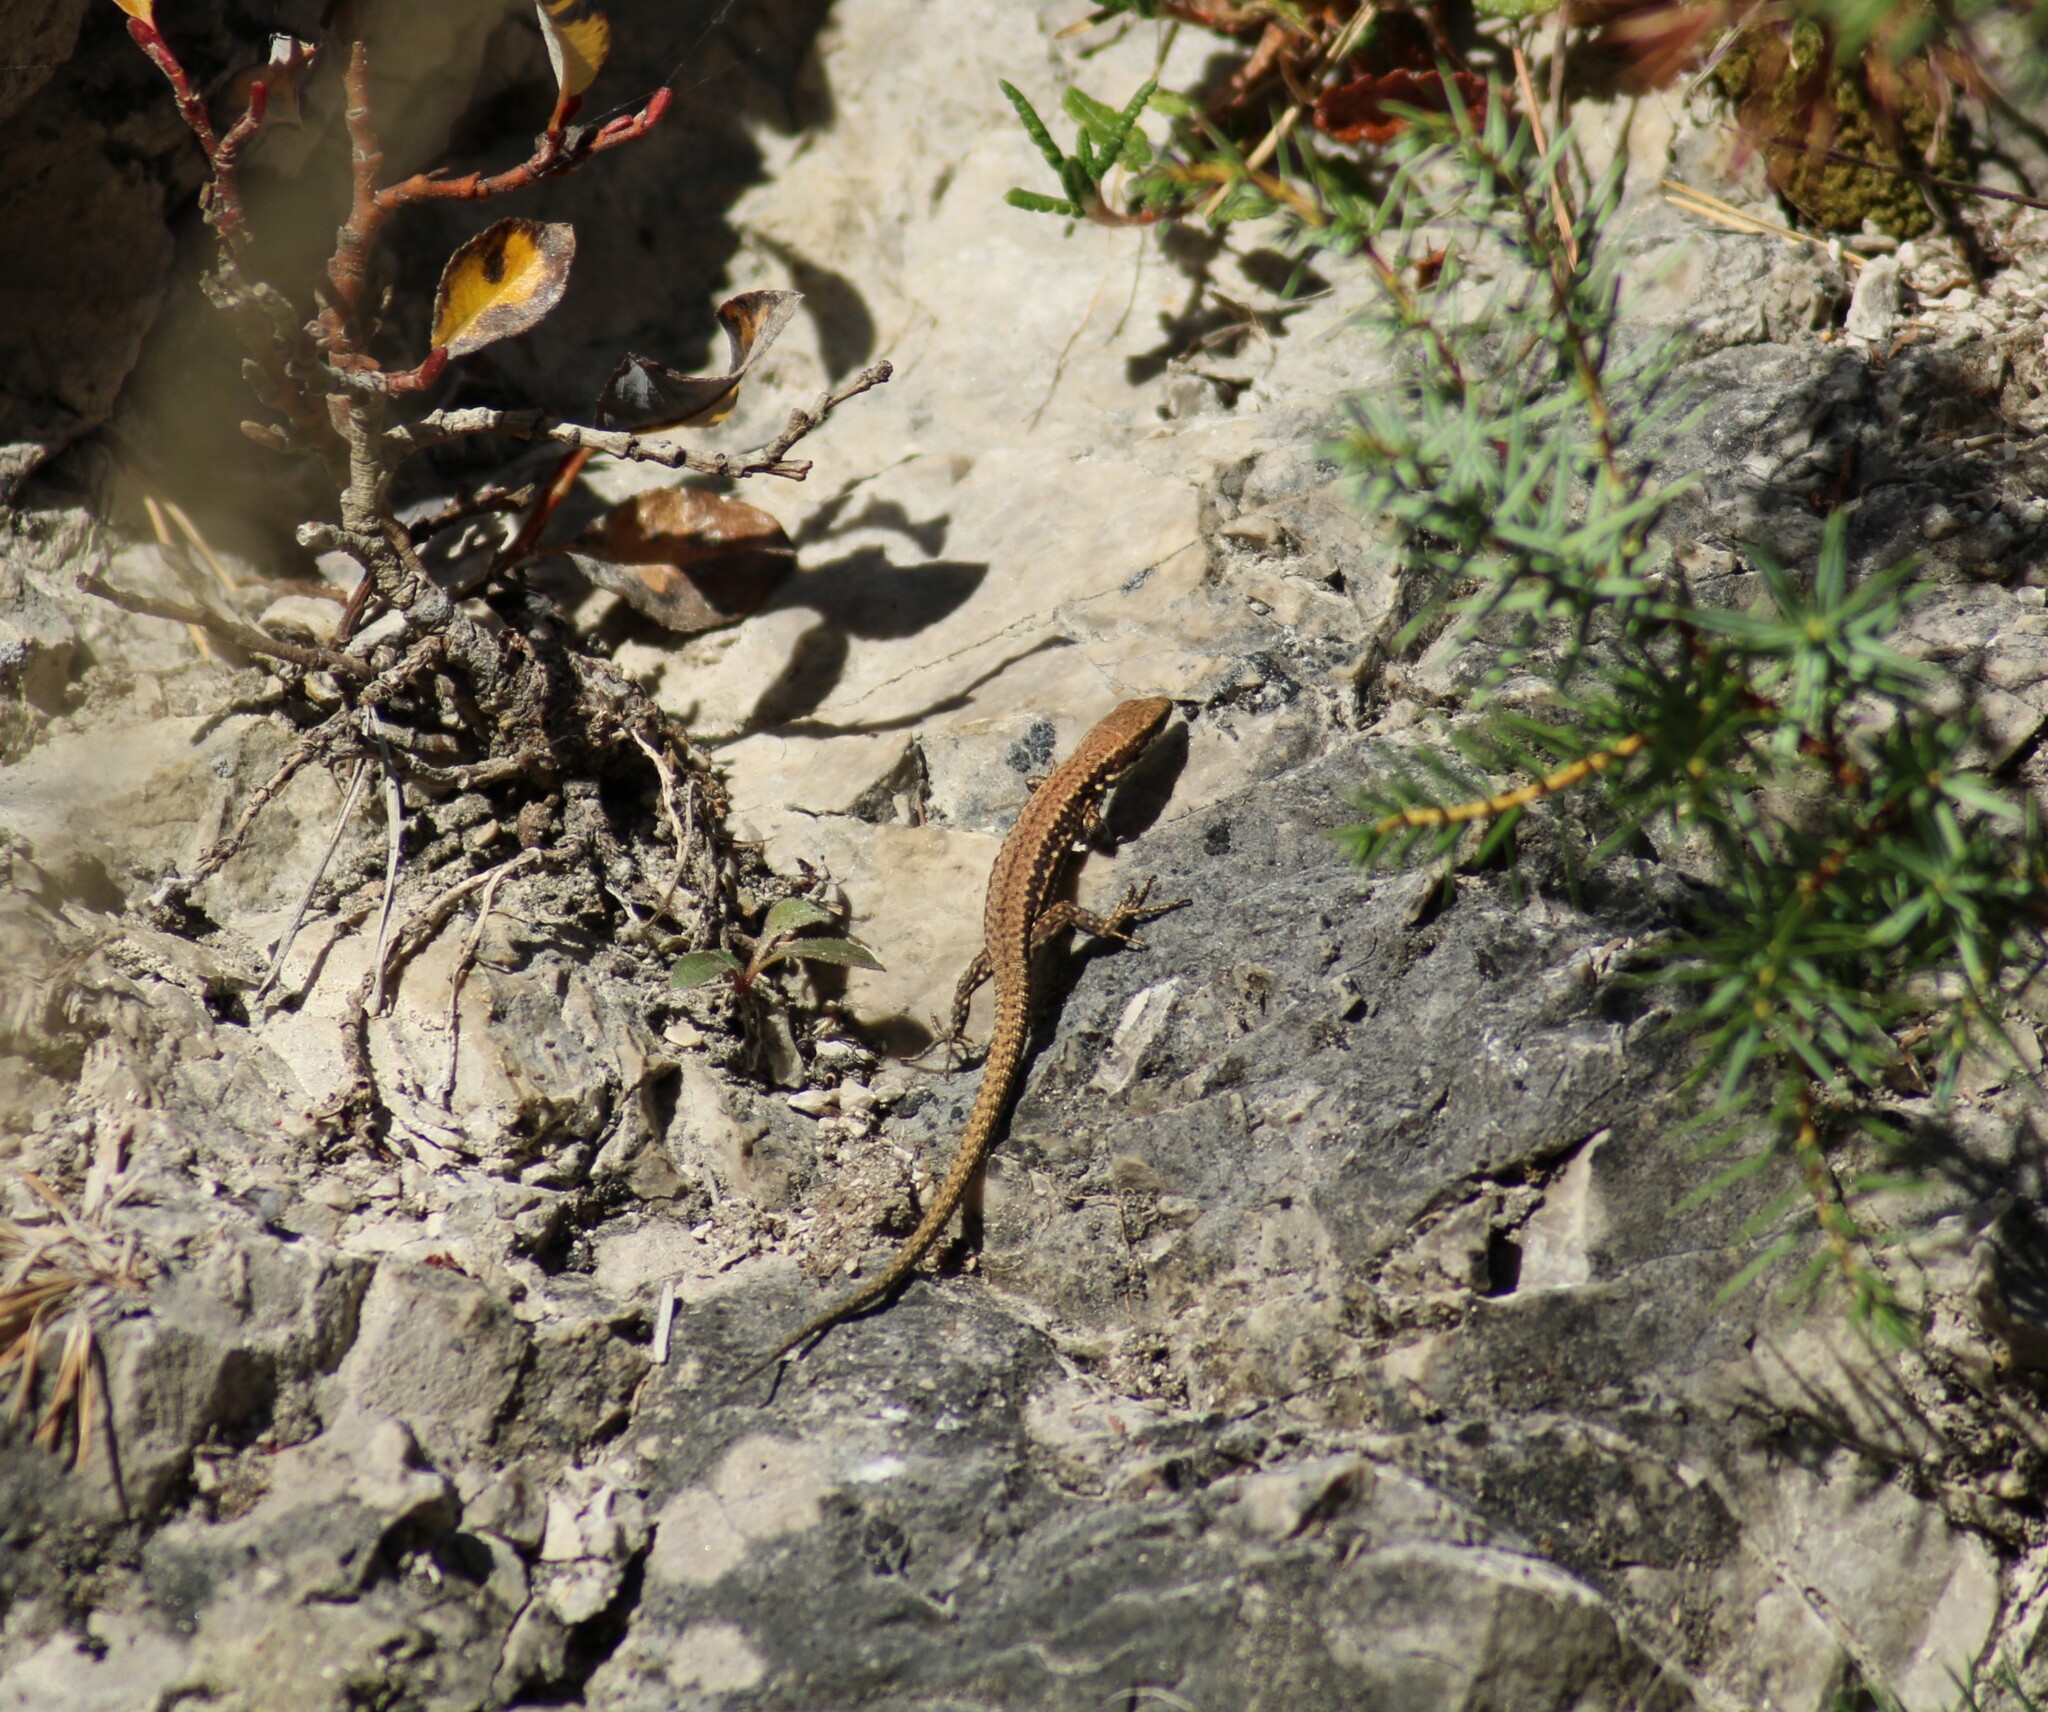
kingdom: Animalia
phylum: Chordata
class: Squamata
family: Lacertidae
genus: Podarcis
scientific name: Podarcis muralis
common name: Common wall lizard
